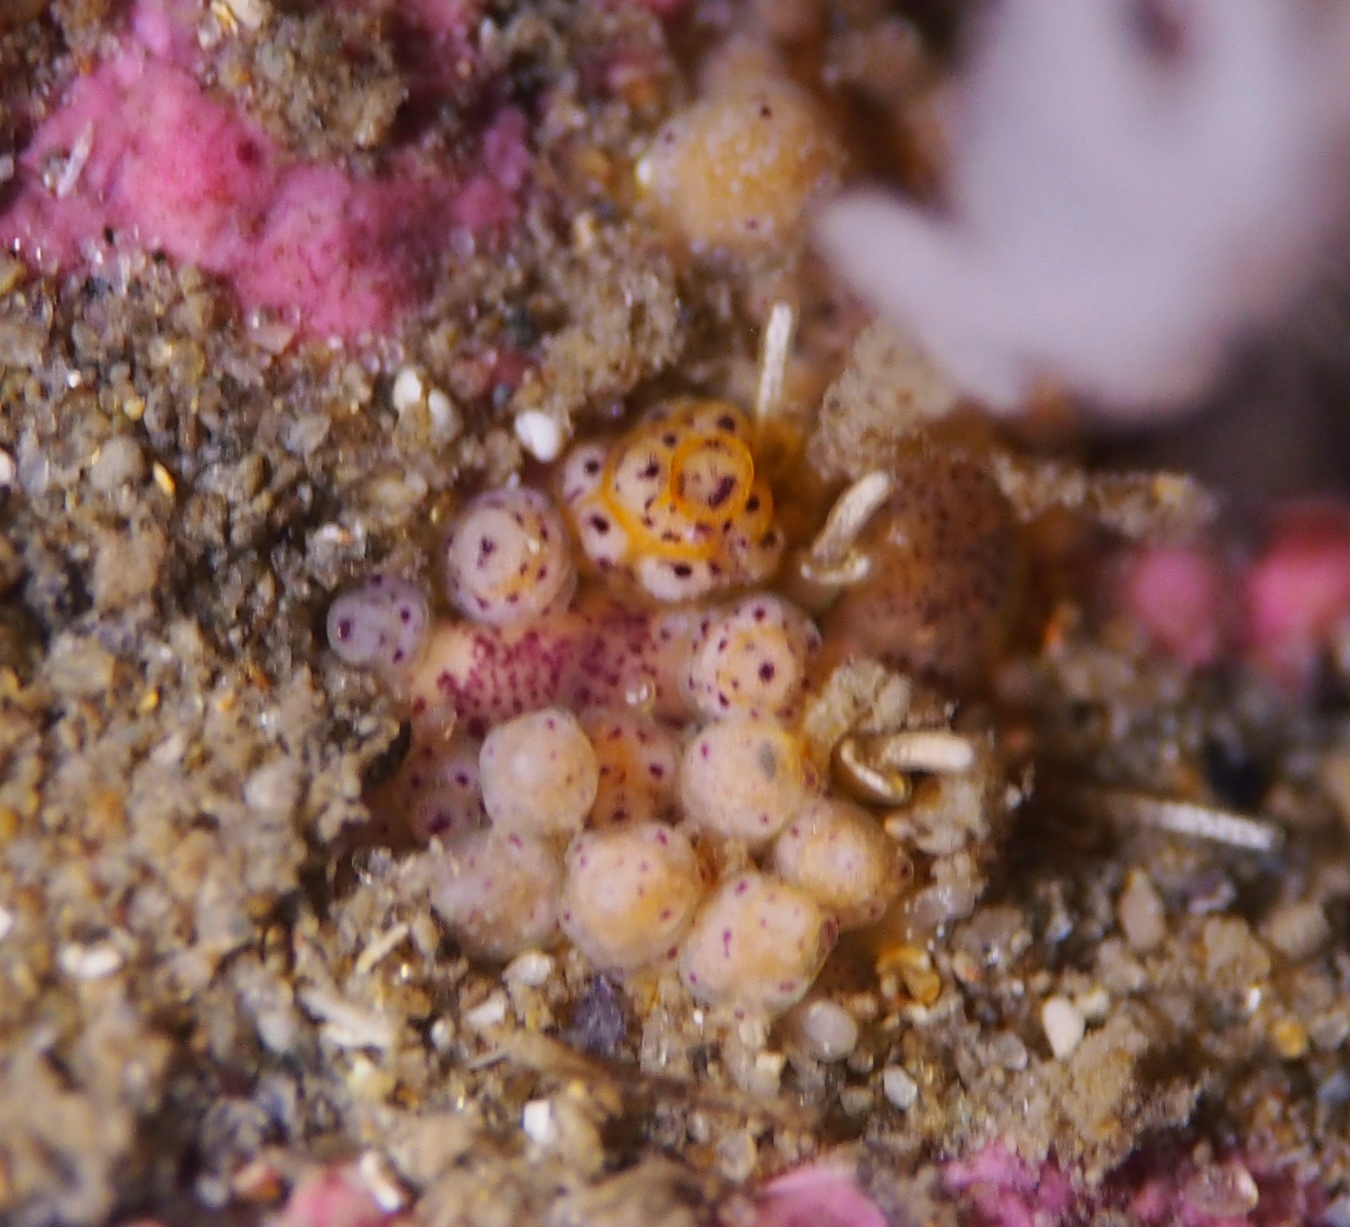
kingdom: Animalia
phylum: Mollusca
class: Gastropoda
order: Nudibranchia
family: Dotidae
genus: Doto
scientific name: Doto dunnei
